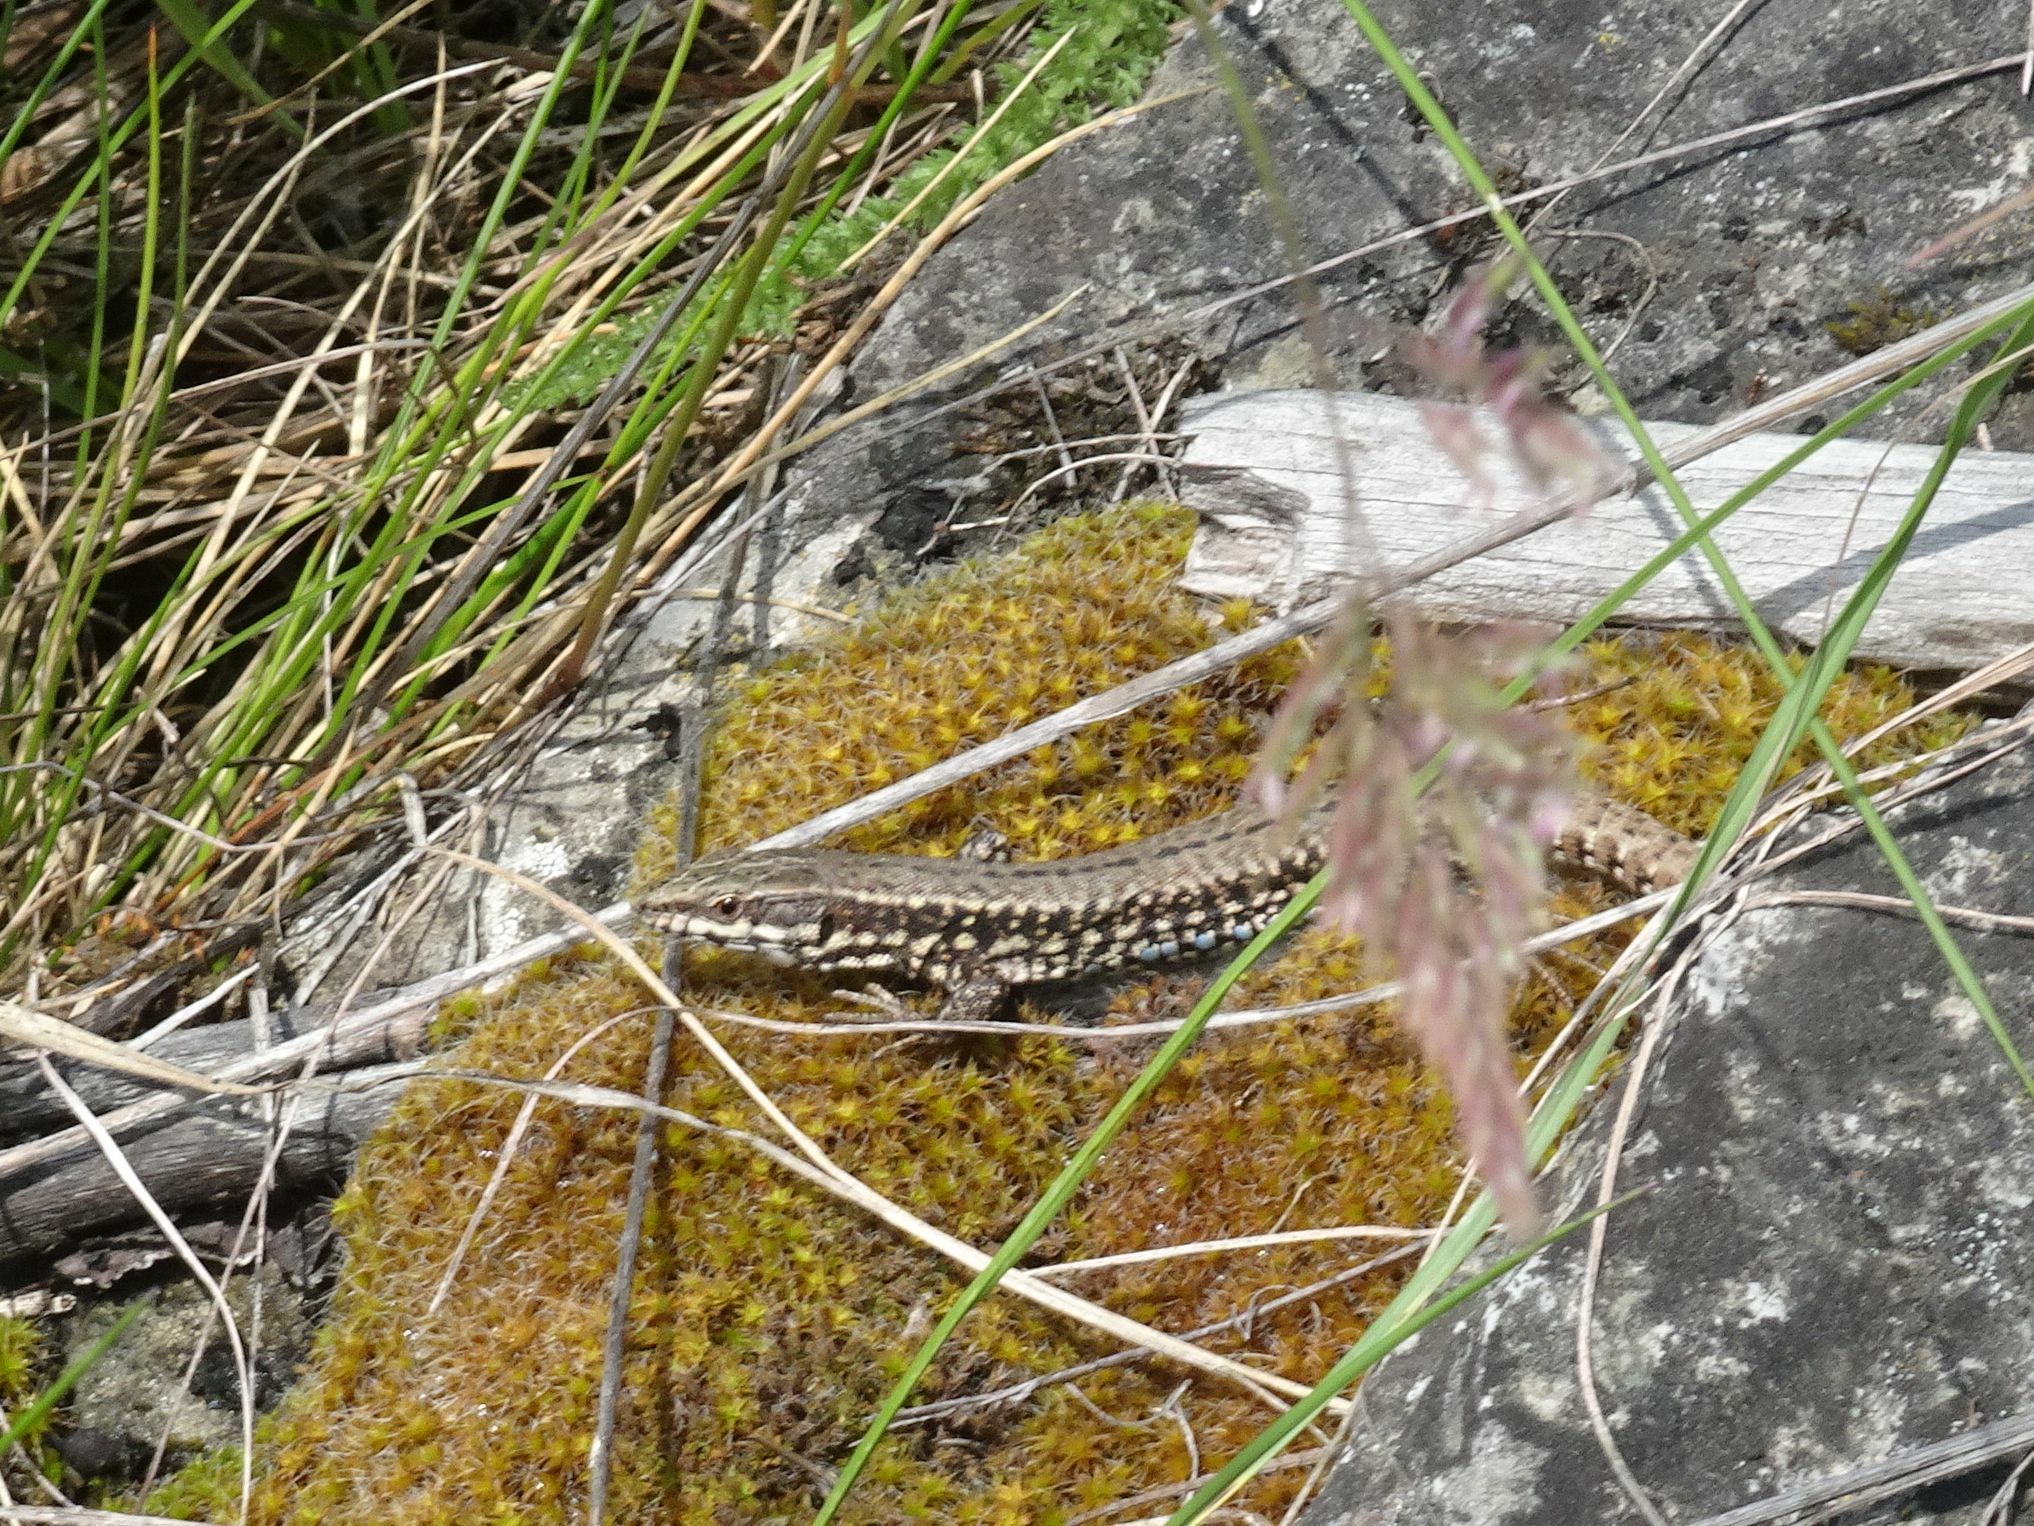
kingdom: Animalia
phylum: Chordata
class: Squamata
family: Lacertidae
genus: Podarcis
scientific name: Podarcis muralis
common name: Common wall lizard
